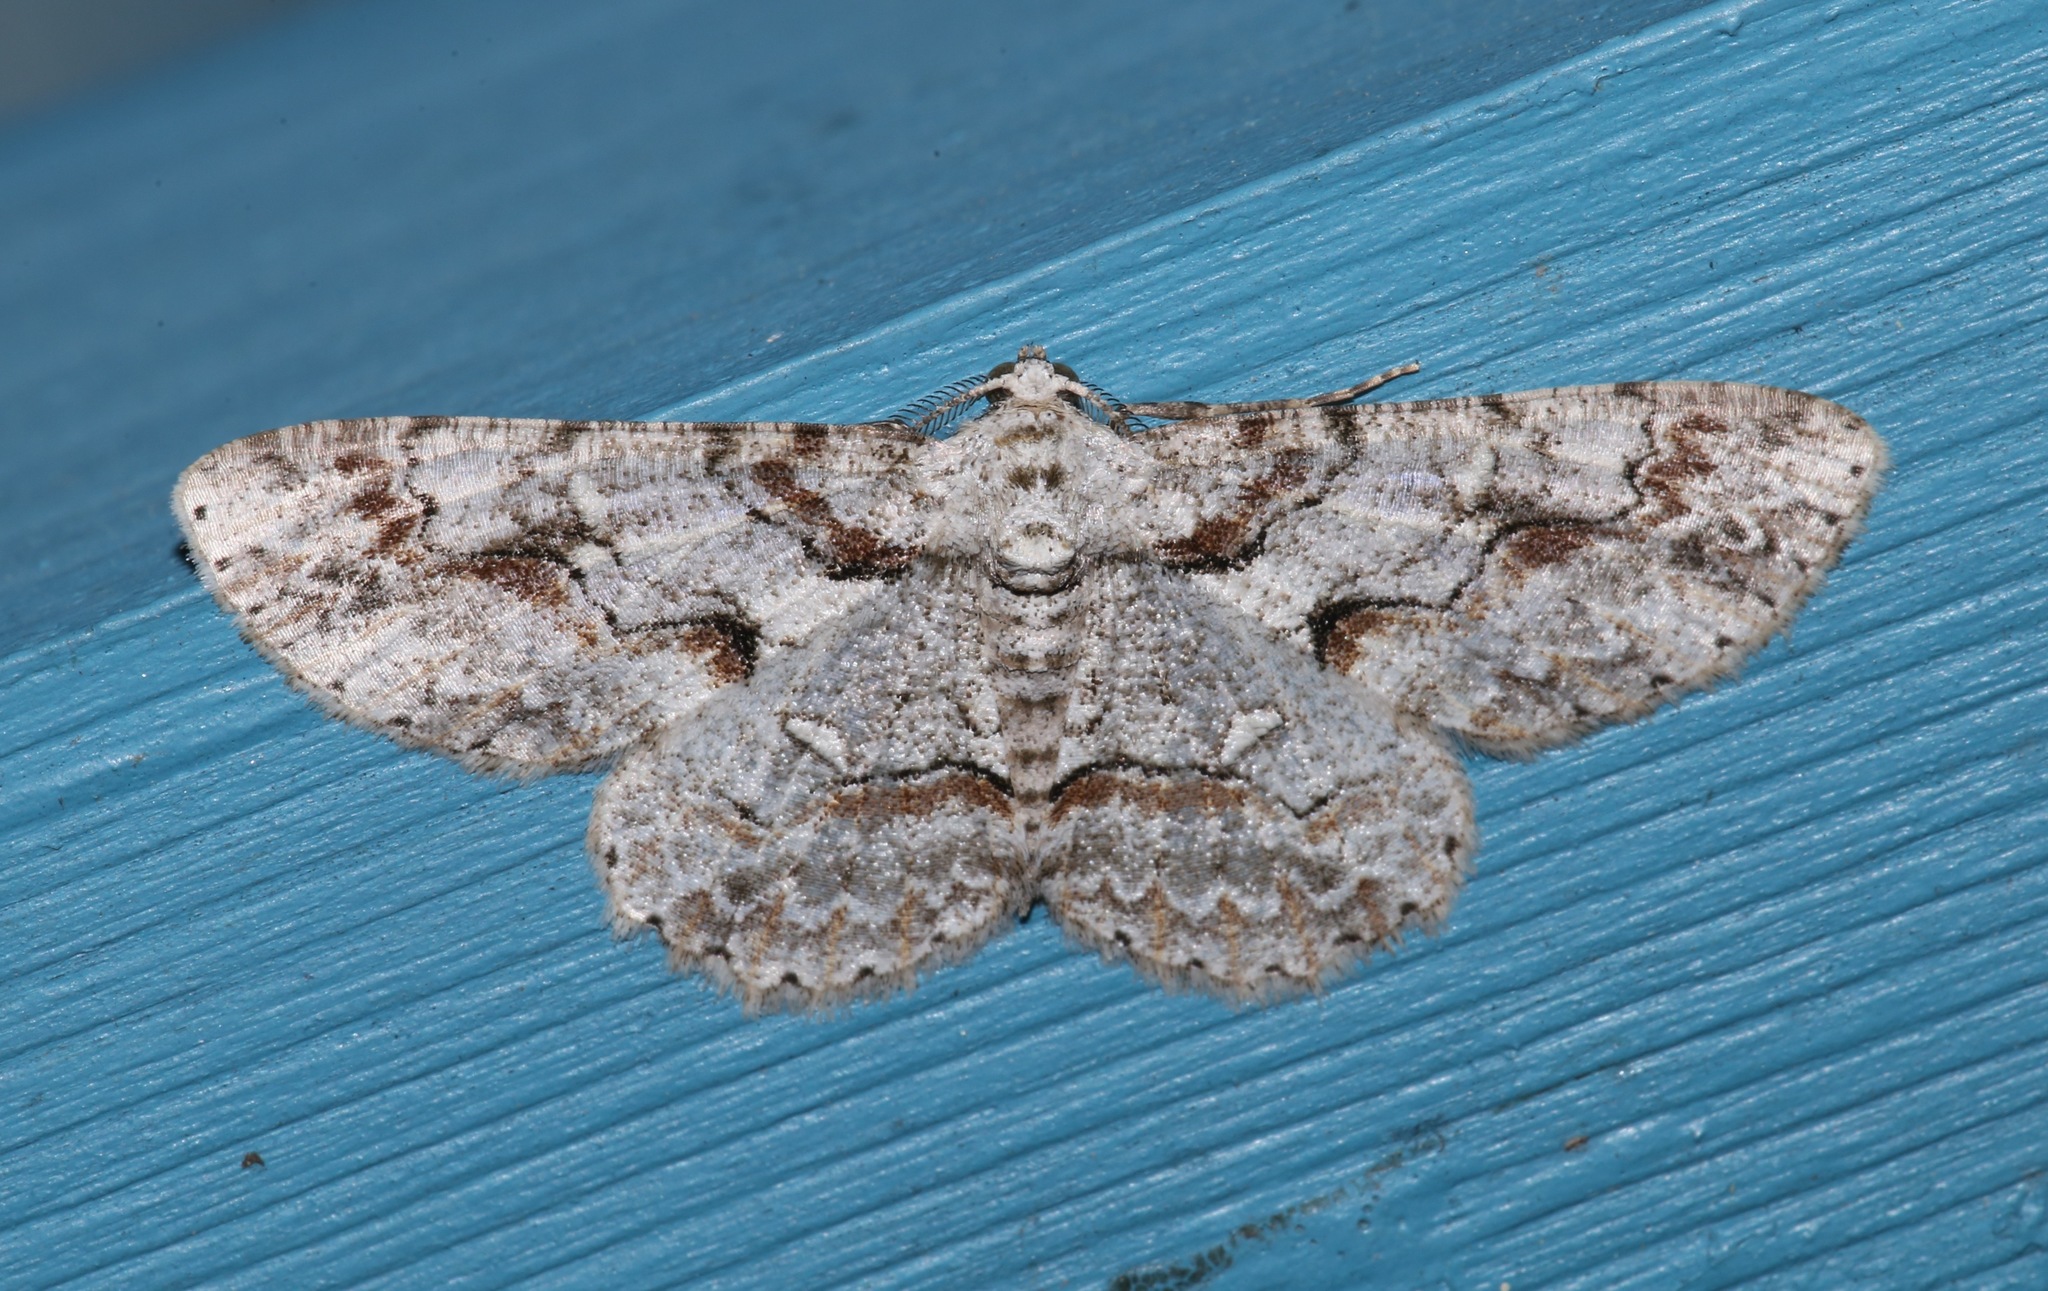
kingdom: Animalia
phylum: Arthropoda
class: Insecta
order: Lepidoptera
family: Geometridae
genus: Iridopsis
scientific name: Iridopsis defectaria
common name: Brown-shaded gray
